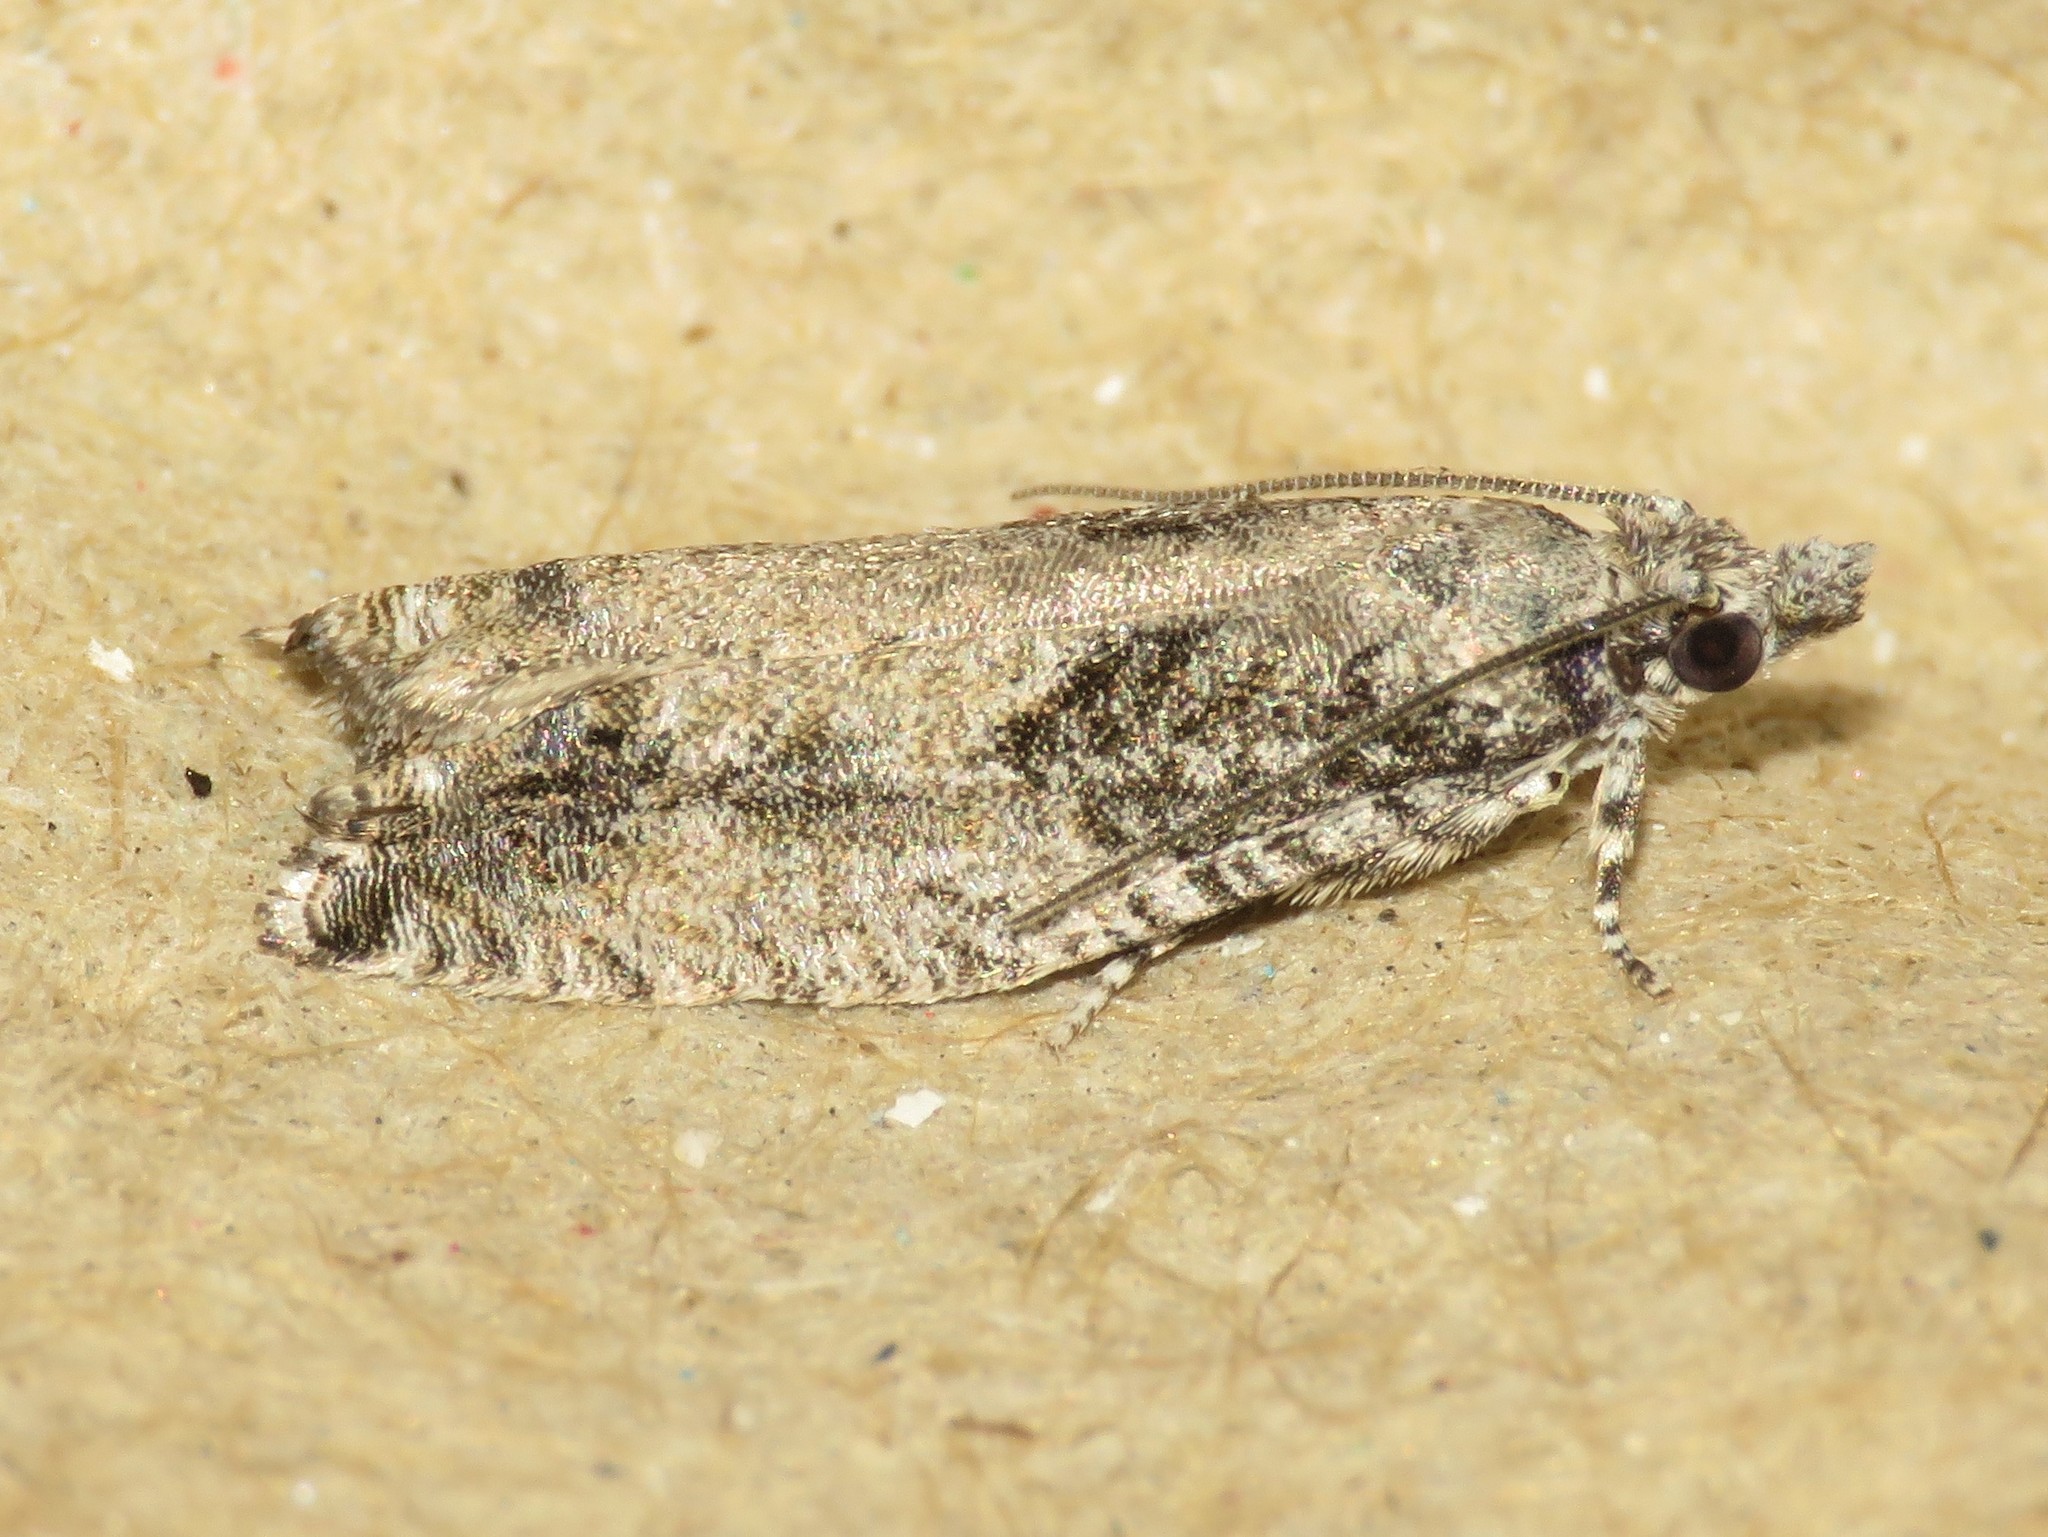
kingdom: Animalia
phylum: Arthropoda
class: Insecta
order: Lepidoptera
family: Tortricidae
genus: Epinotia
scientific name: Epinotia cinereana
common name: Grey aspen bell
